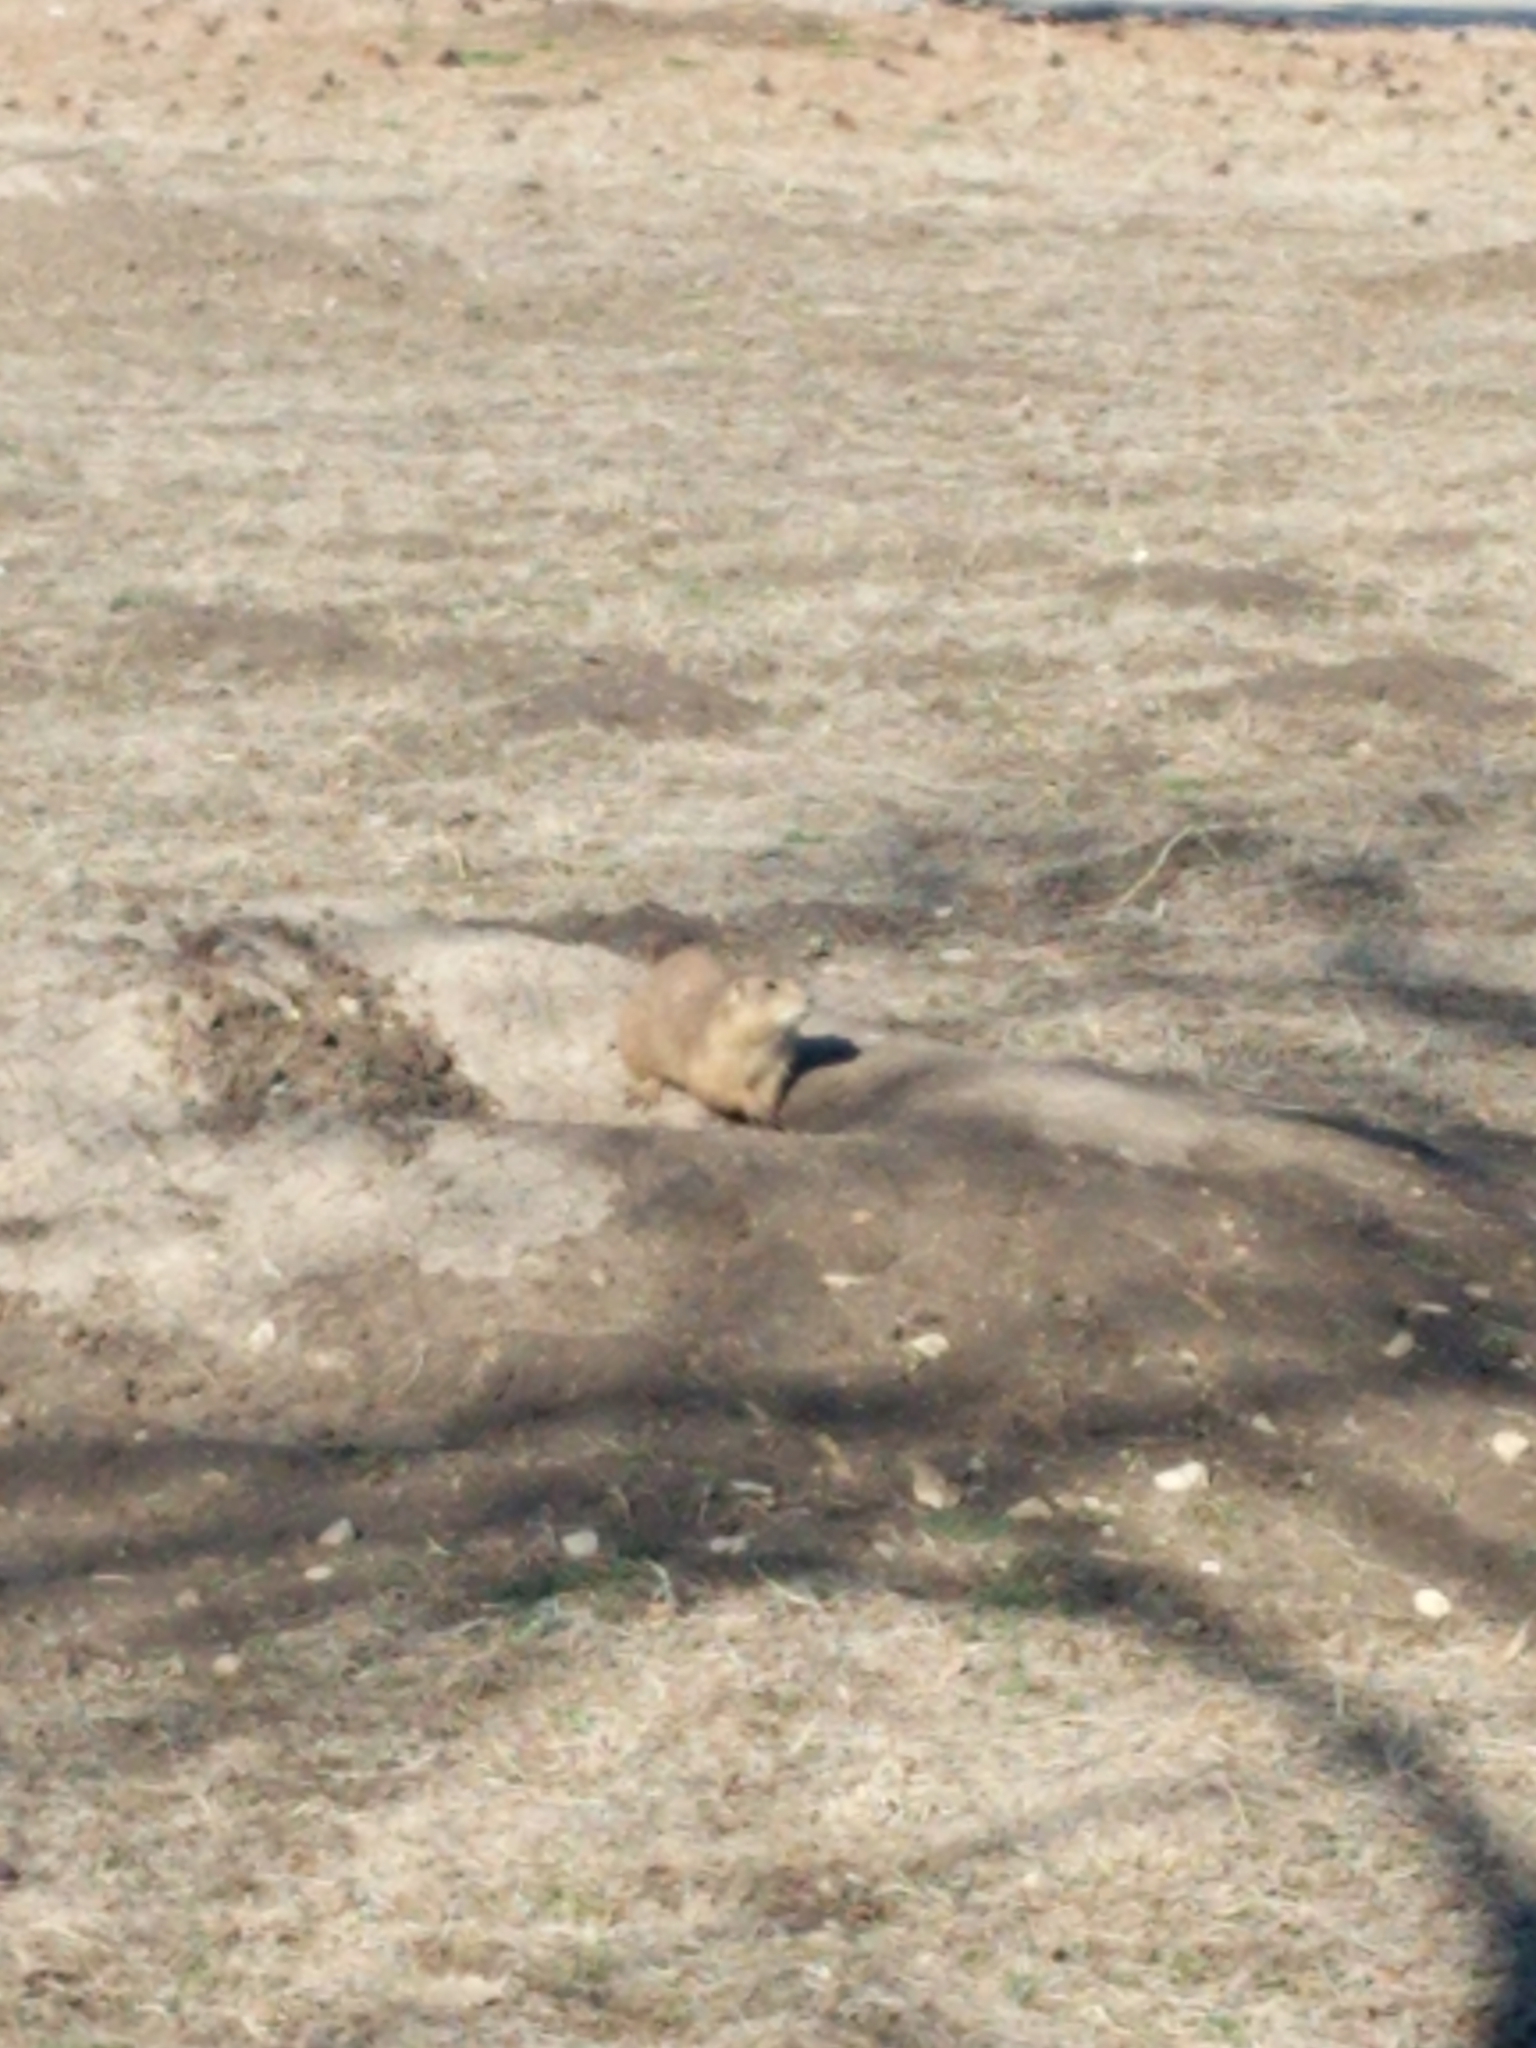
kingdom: Animalia
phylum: Chordata
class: Mammalia
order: Rodentia
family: Sciuridae
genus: Cynomys
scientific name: Cynomys ludovicianus
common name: Black-tailed prairie dog
